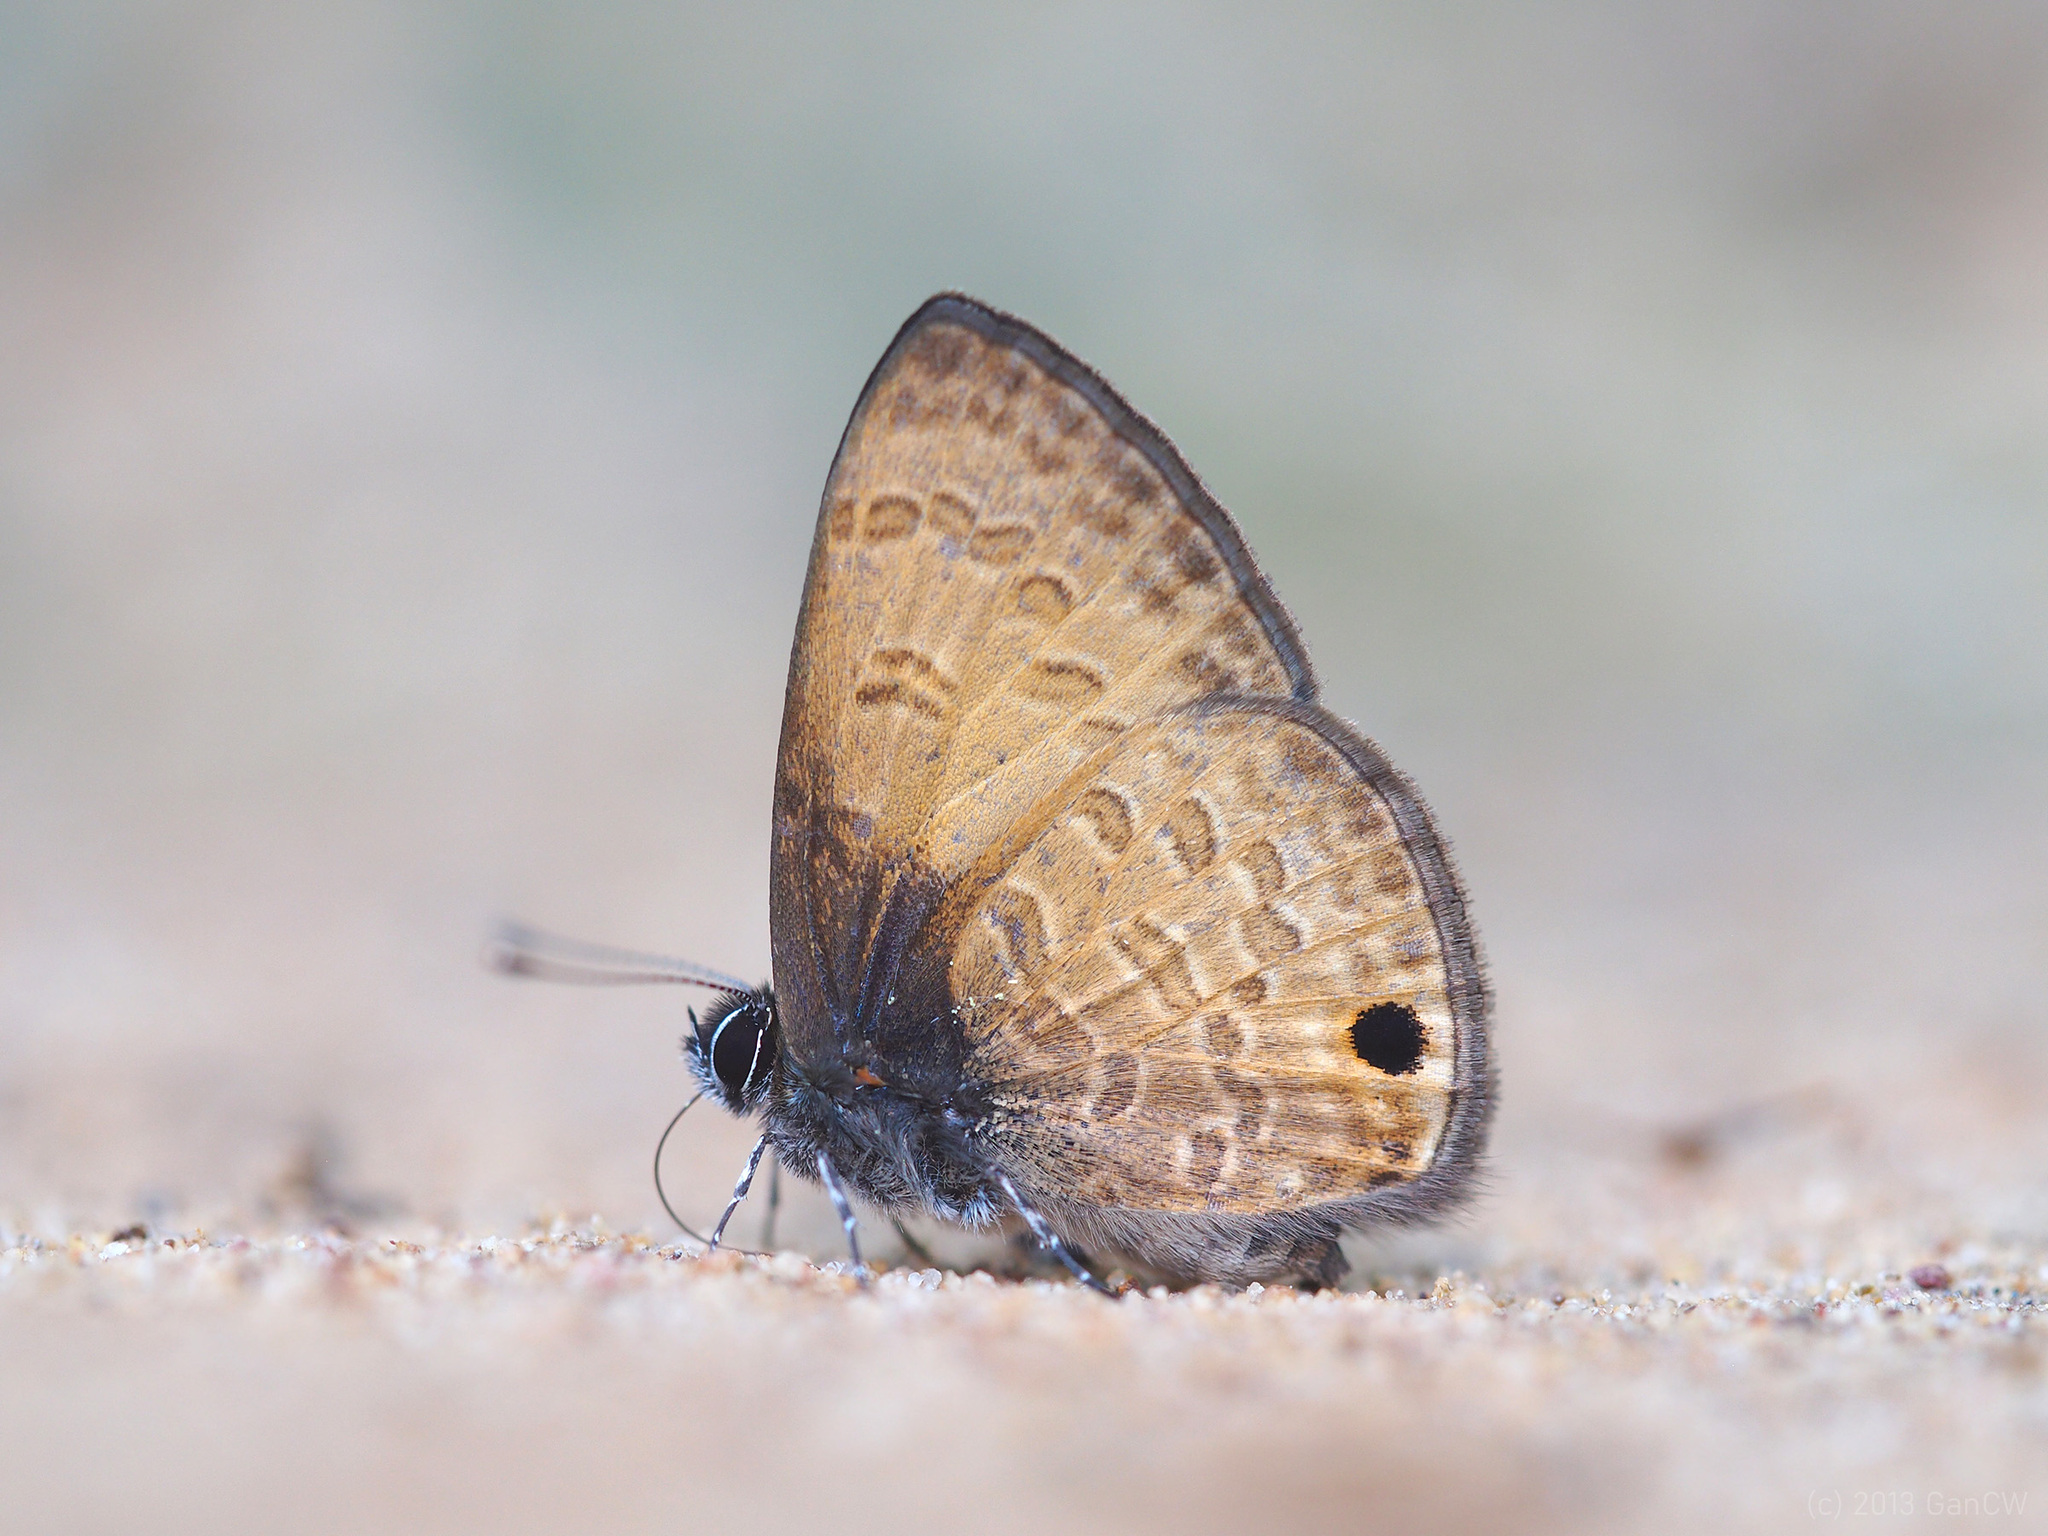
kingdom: Animalia
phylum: Arthropoda
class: Insecta
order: Lepidoptera
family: Lycaenidae
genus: Prosotas
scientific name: Prosotas gracilis
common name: Dark-based lineblue
